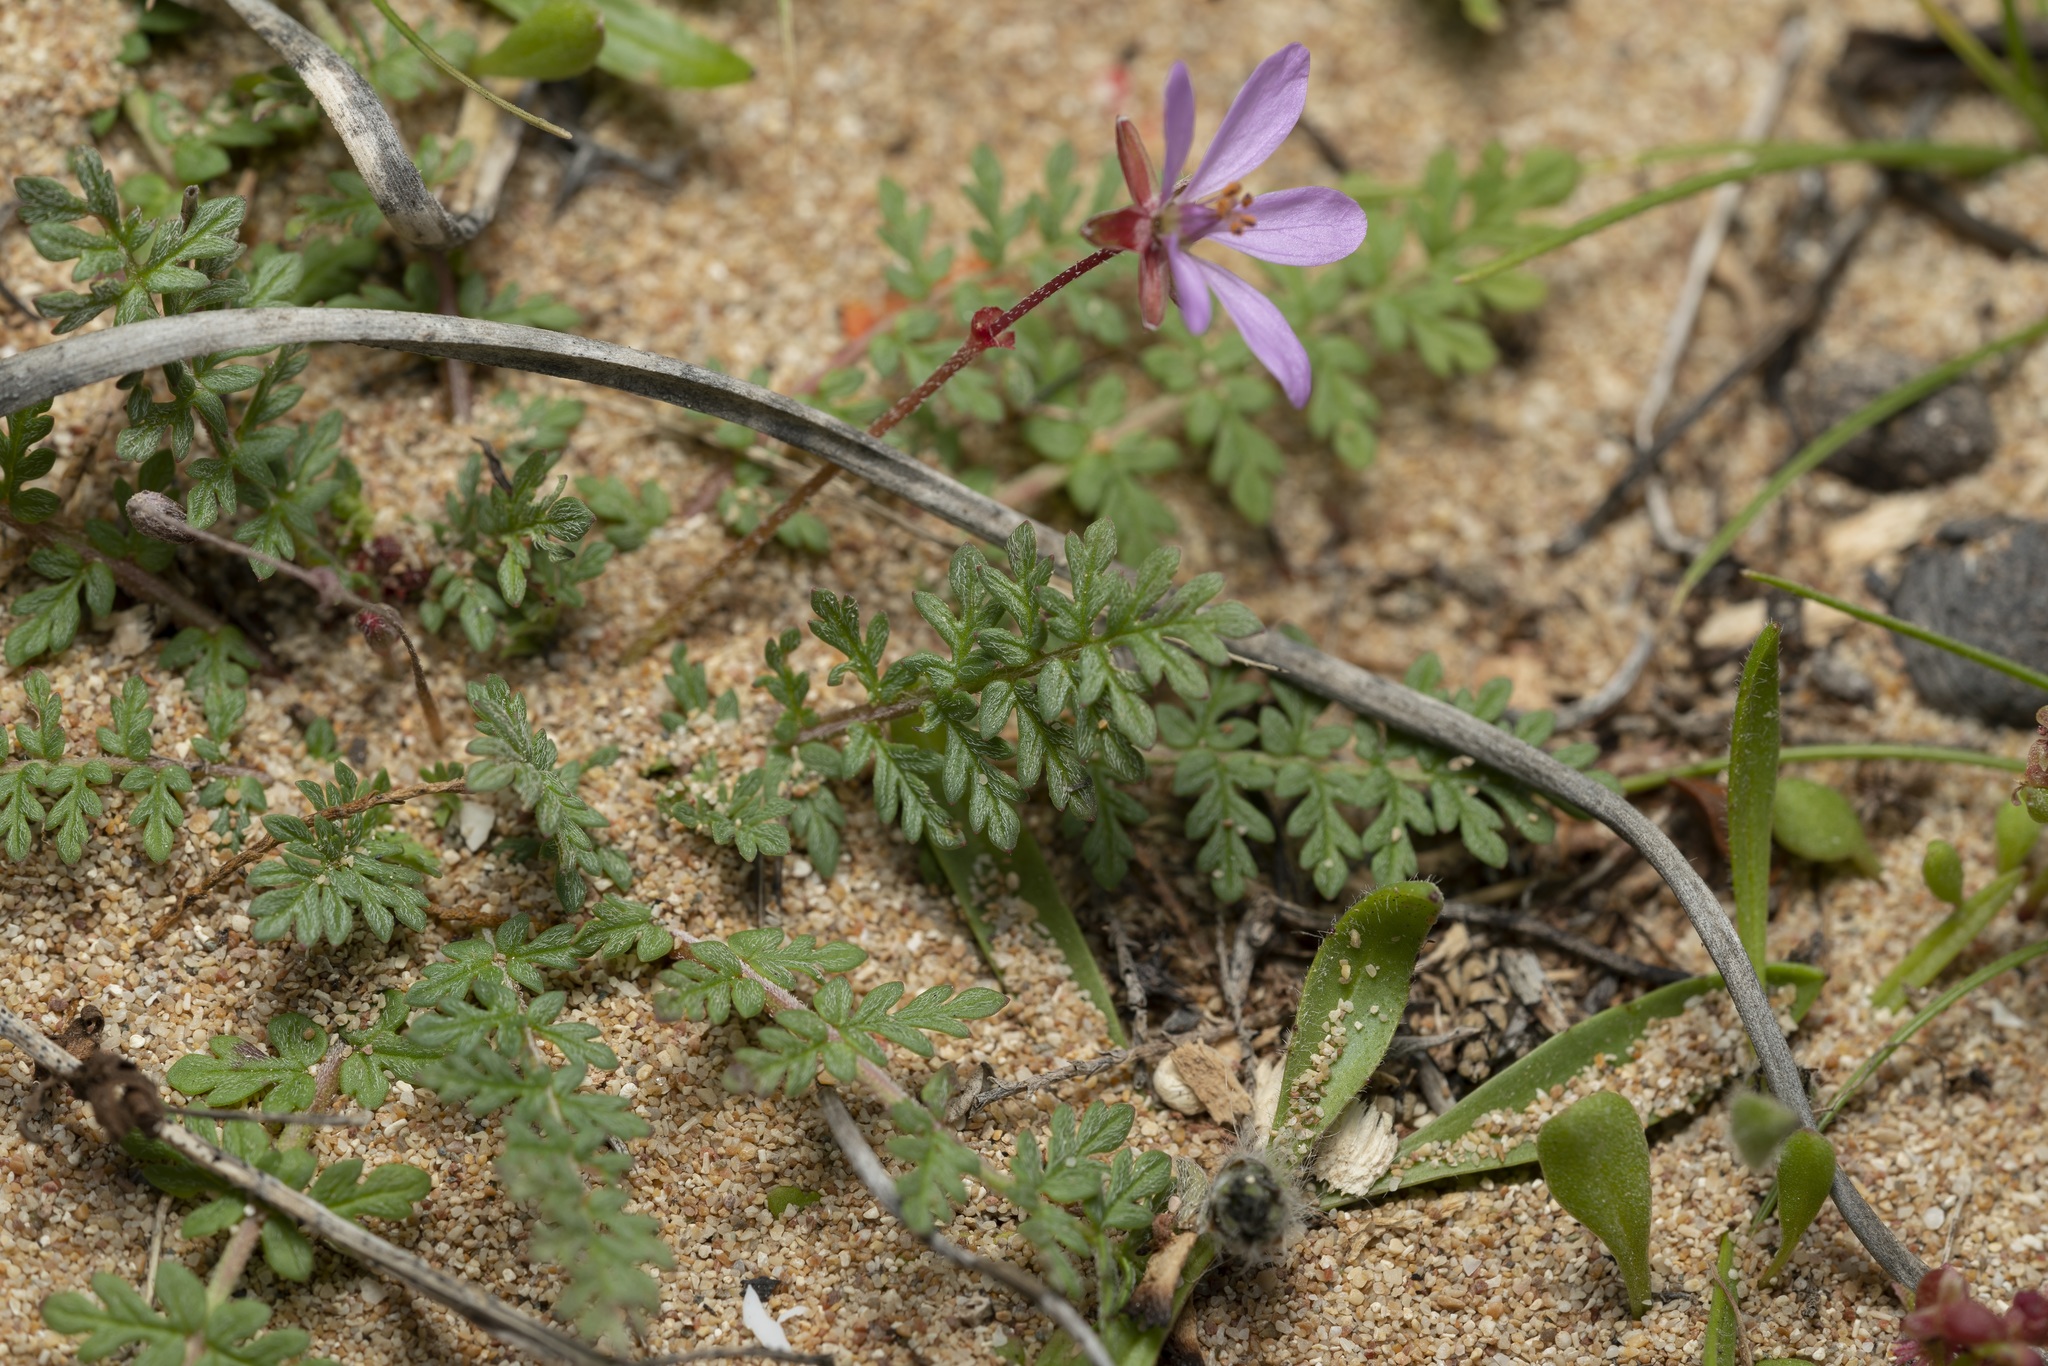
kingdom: Plantae
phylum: Tracheophyta
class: Magnoliopsida
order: Geraniales
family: Geraniaceae
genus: Erodium
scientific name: Erodium cicutarium
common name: Common stork's-bill
